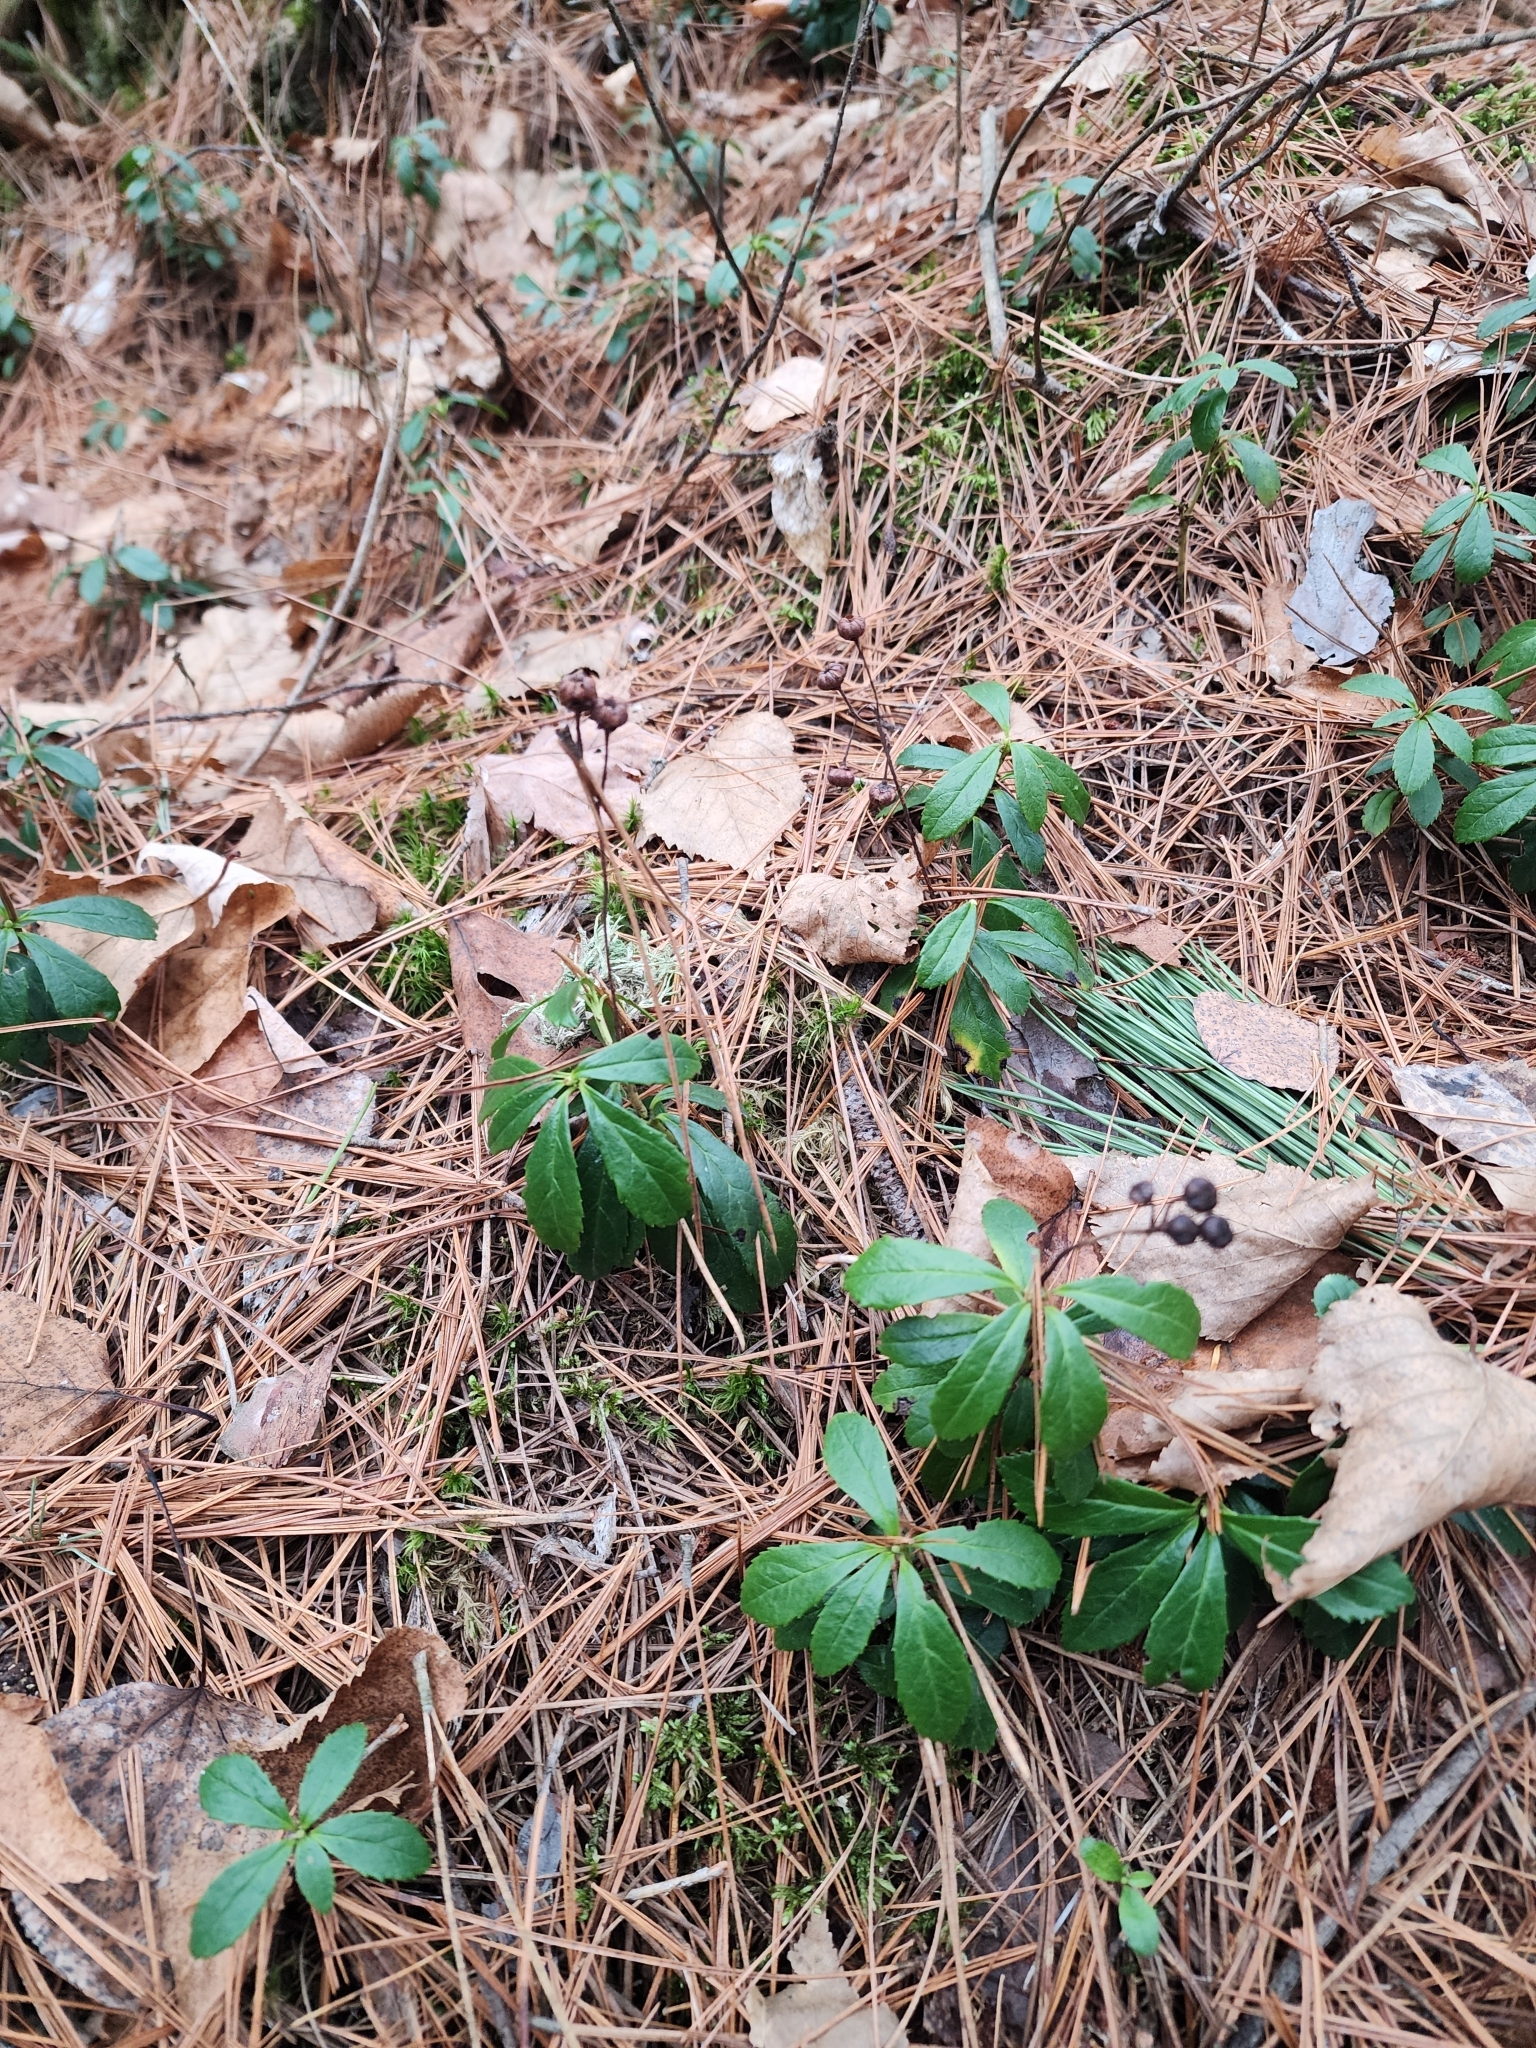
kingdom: Plantae
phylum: Tracheophyta
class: Magnoliopsida
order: Ericales
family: Ericaceae
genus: Chimaphila
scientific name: Chimaphila umbellata
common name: Pipsissewa
